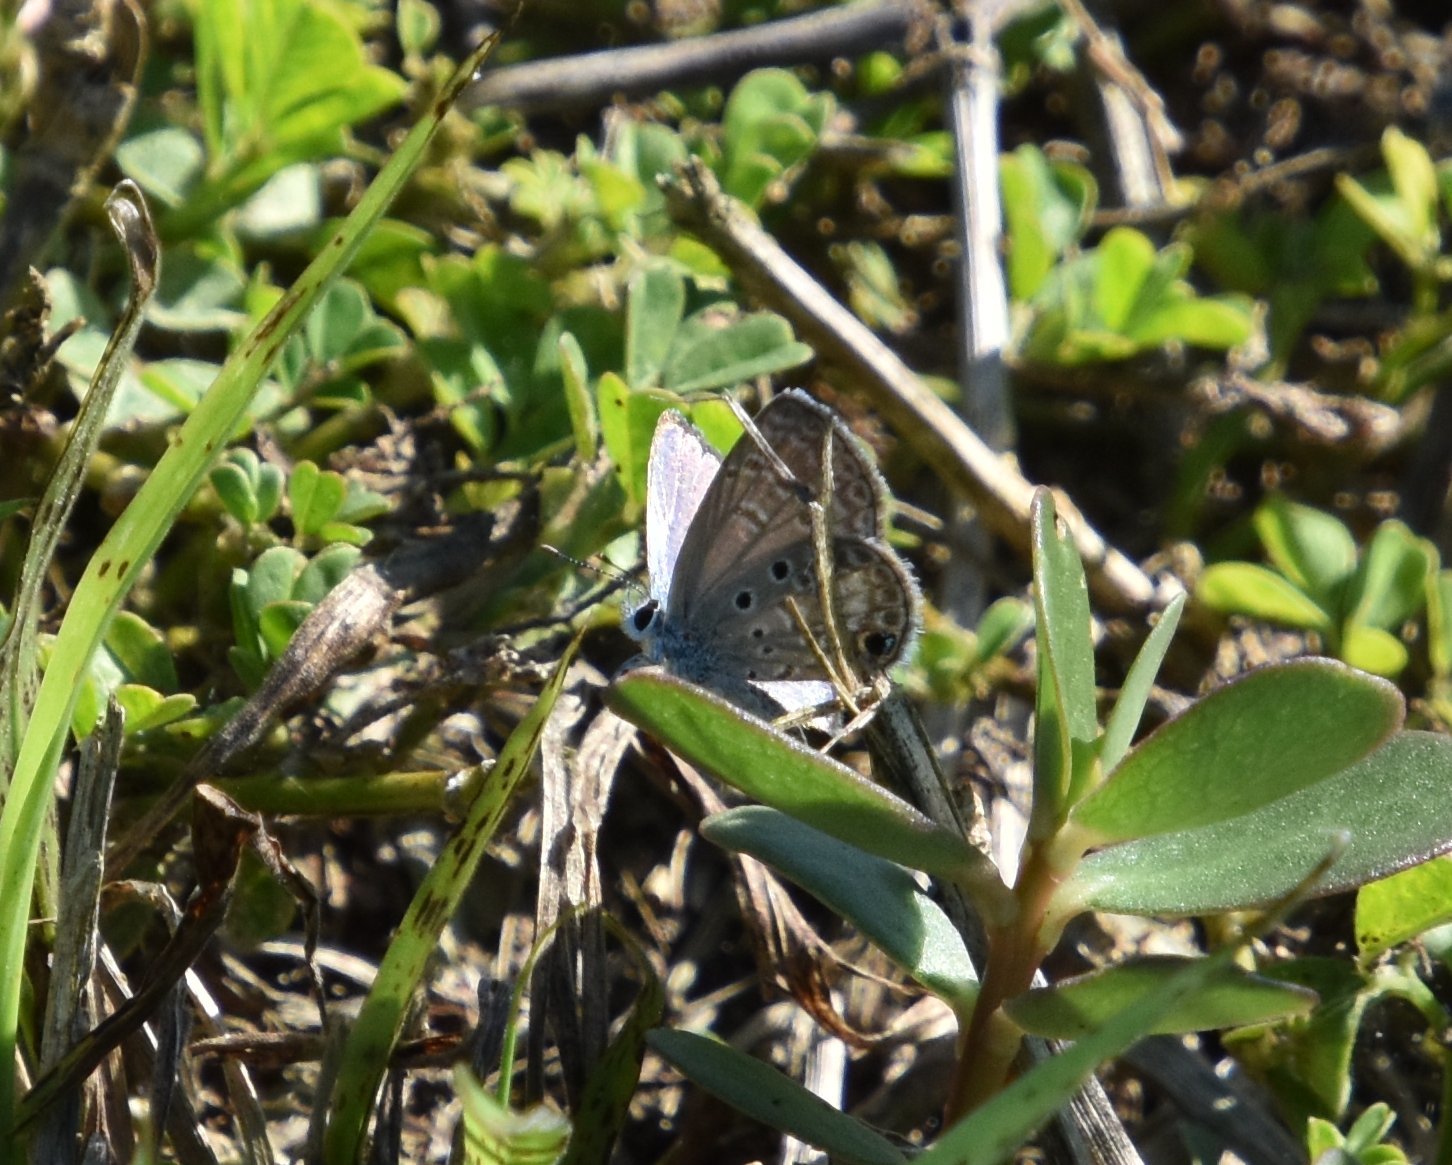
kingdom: Animalia
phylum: Arthropoda
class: Insecta
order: Lepidoptera
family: Lycaenidae
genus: Hemiargus
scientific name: Hemiargus ceraunus
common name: Ceraunus blue
